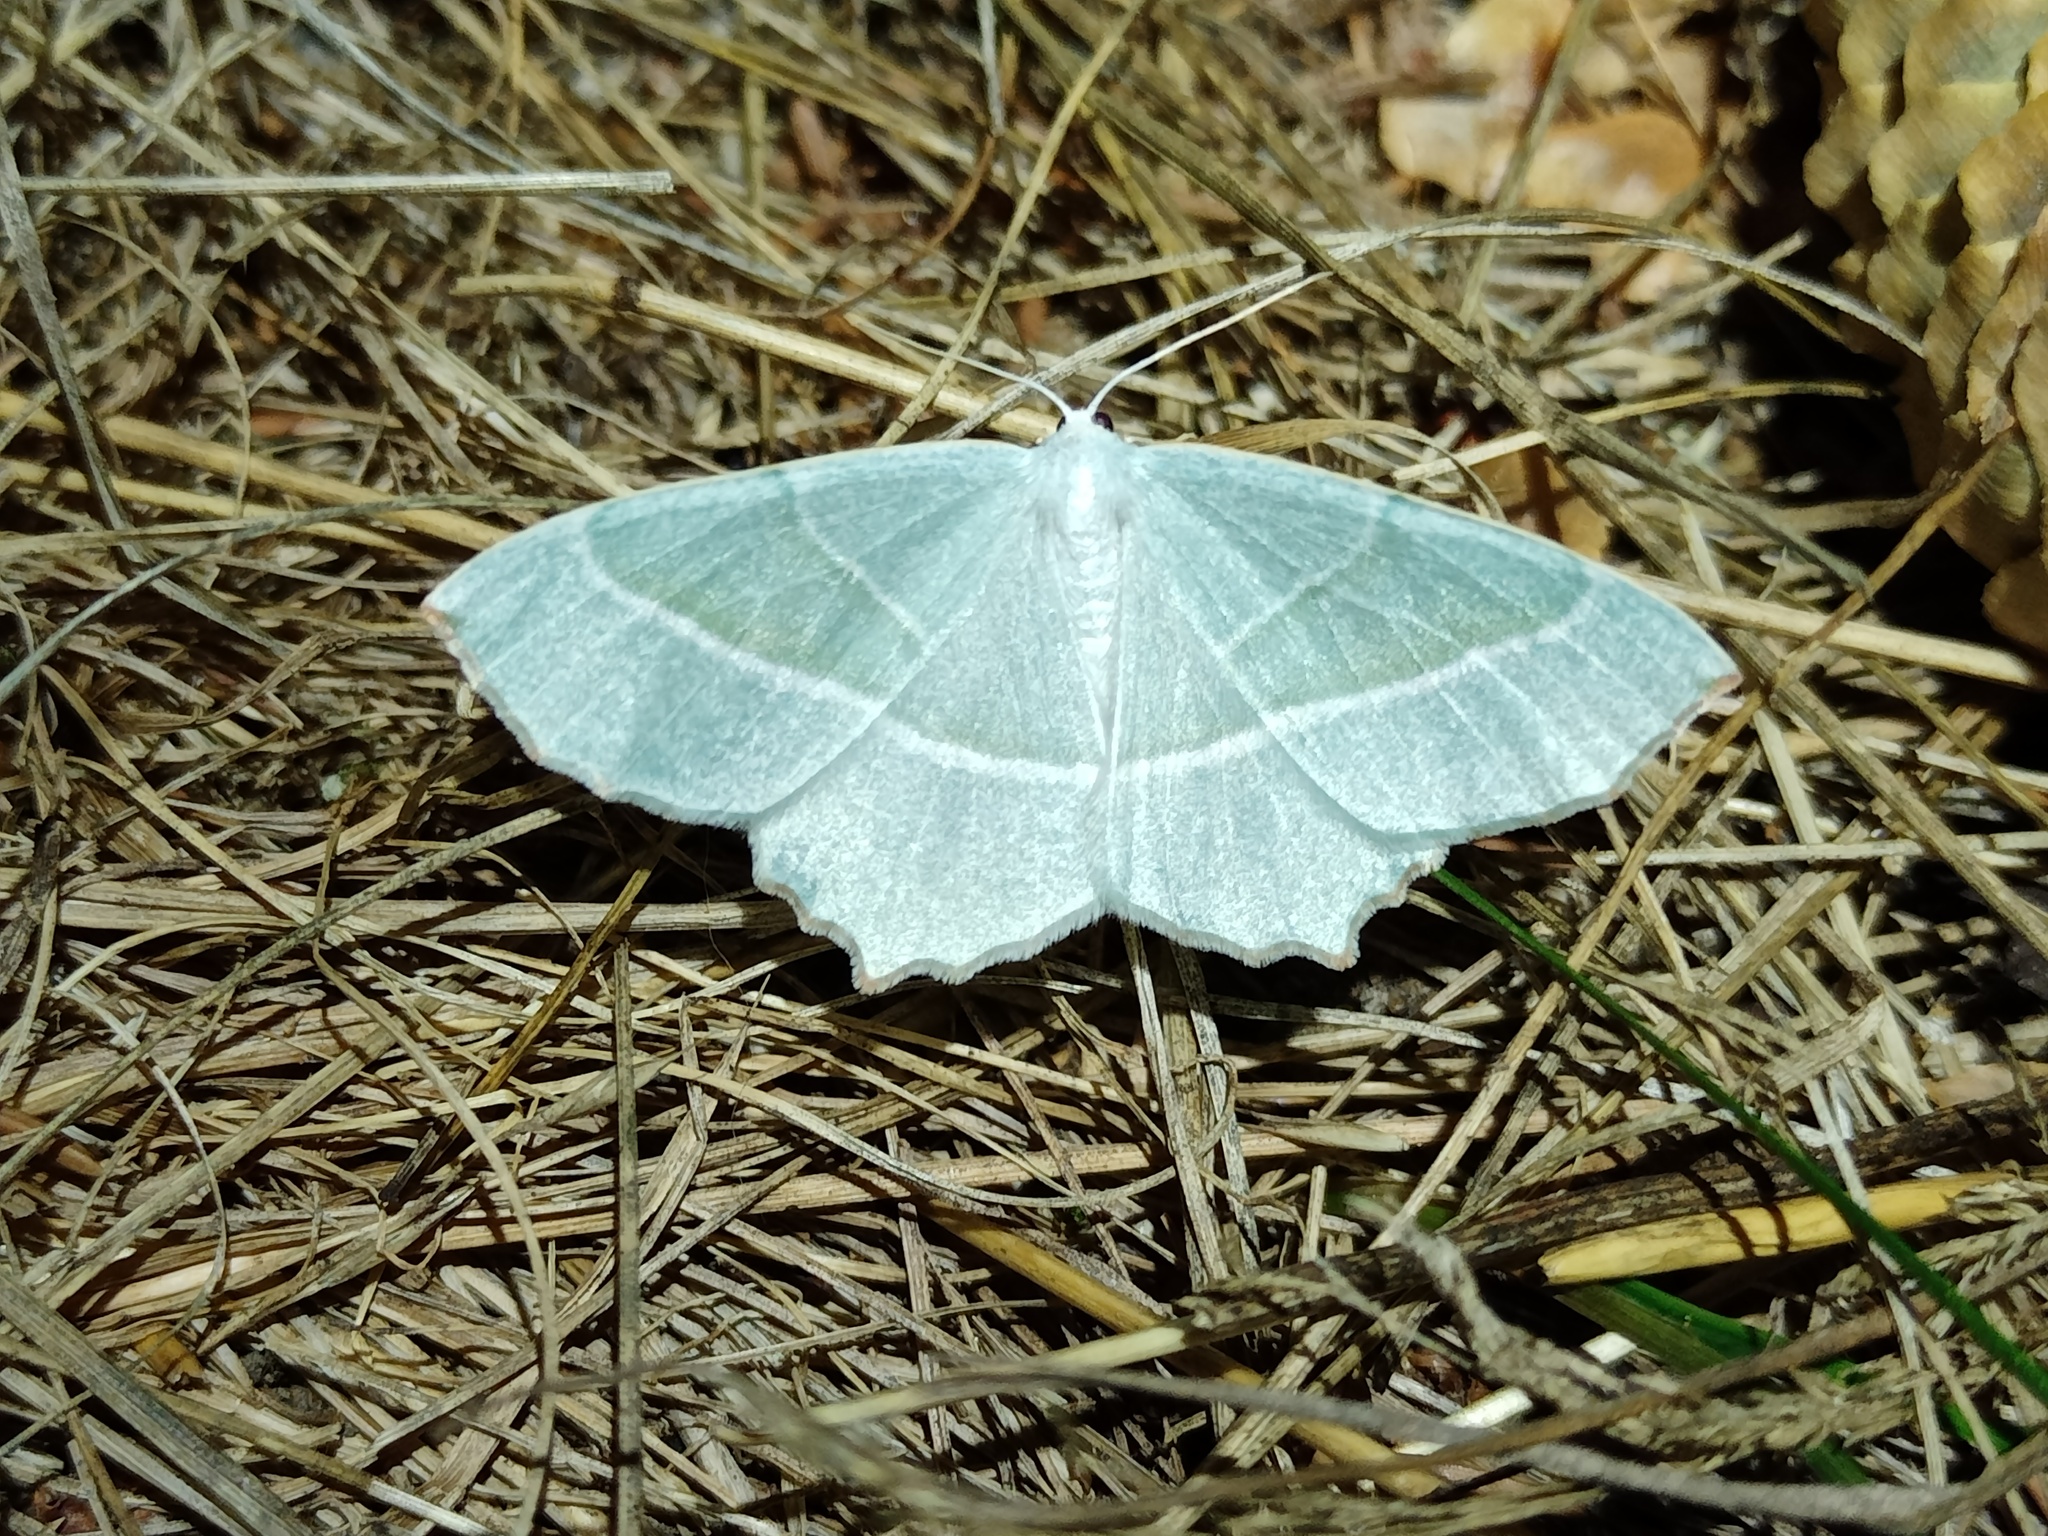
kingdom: Animalia
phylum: Arthropoda
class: Insecta
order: Lepidoptera
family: Geometridae
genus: Campaea
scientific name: Campaea margaritaria
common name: Light emerald
